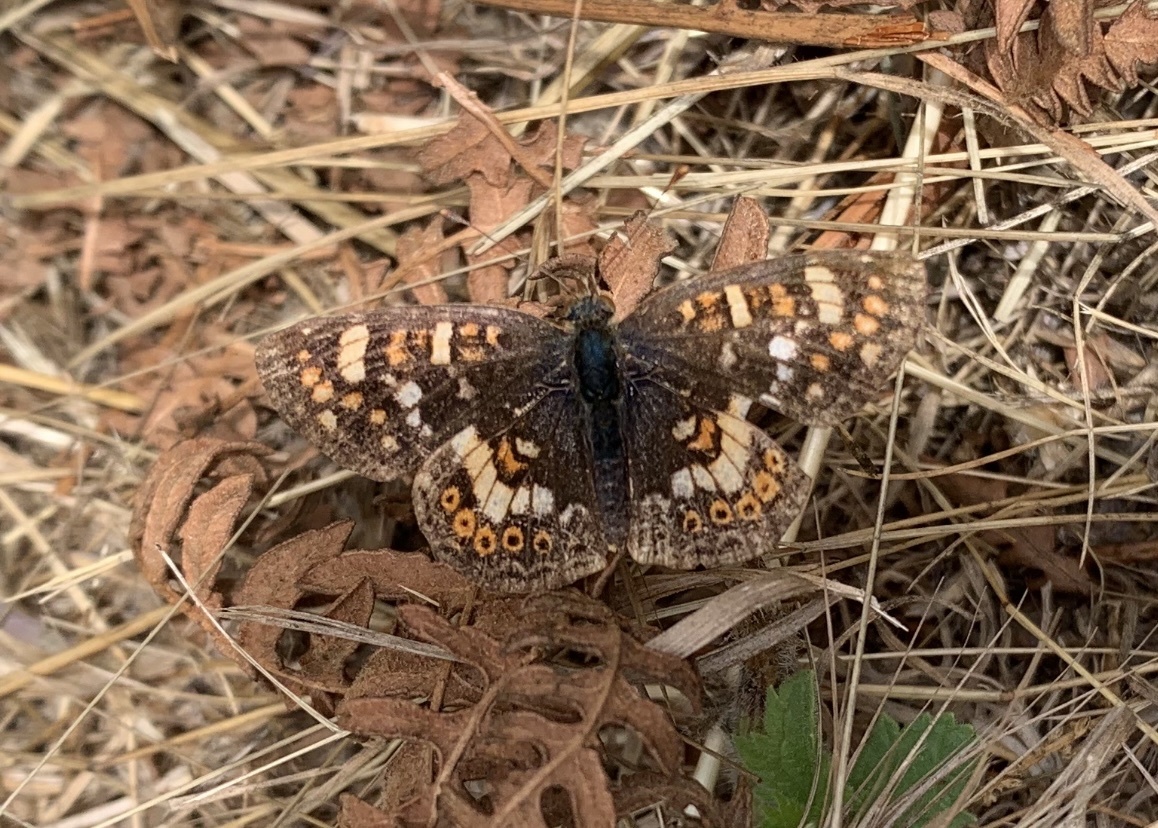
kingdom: Animalia
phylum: Arthropoda
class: Insecta
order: Lepidoptera
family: Nymphalidae
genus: Phyciodes
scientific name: Phyciodes tharos
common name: Pearl crescent
